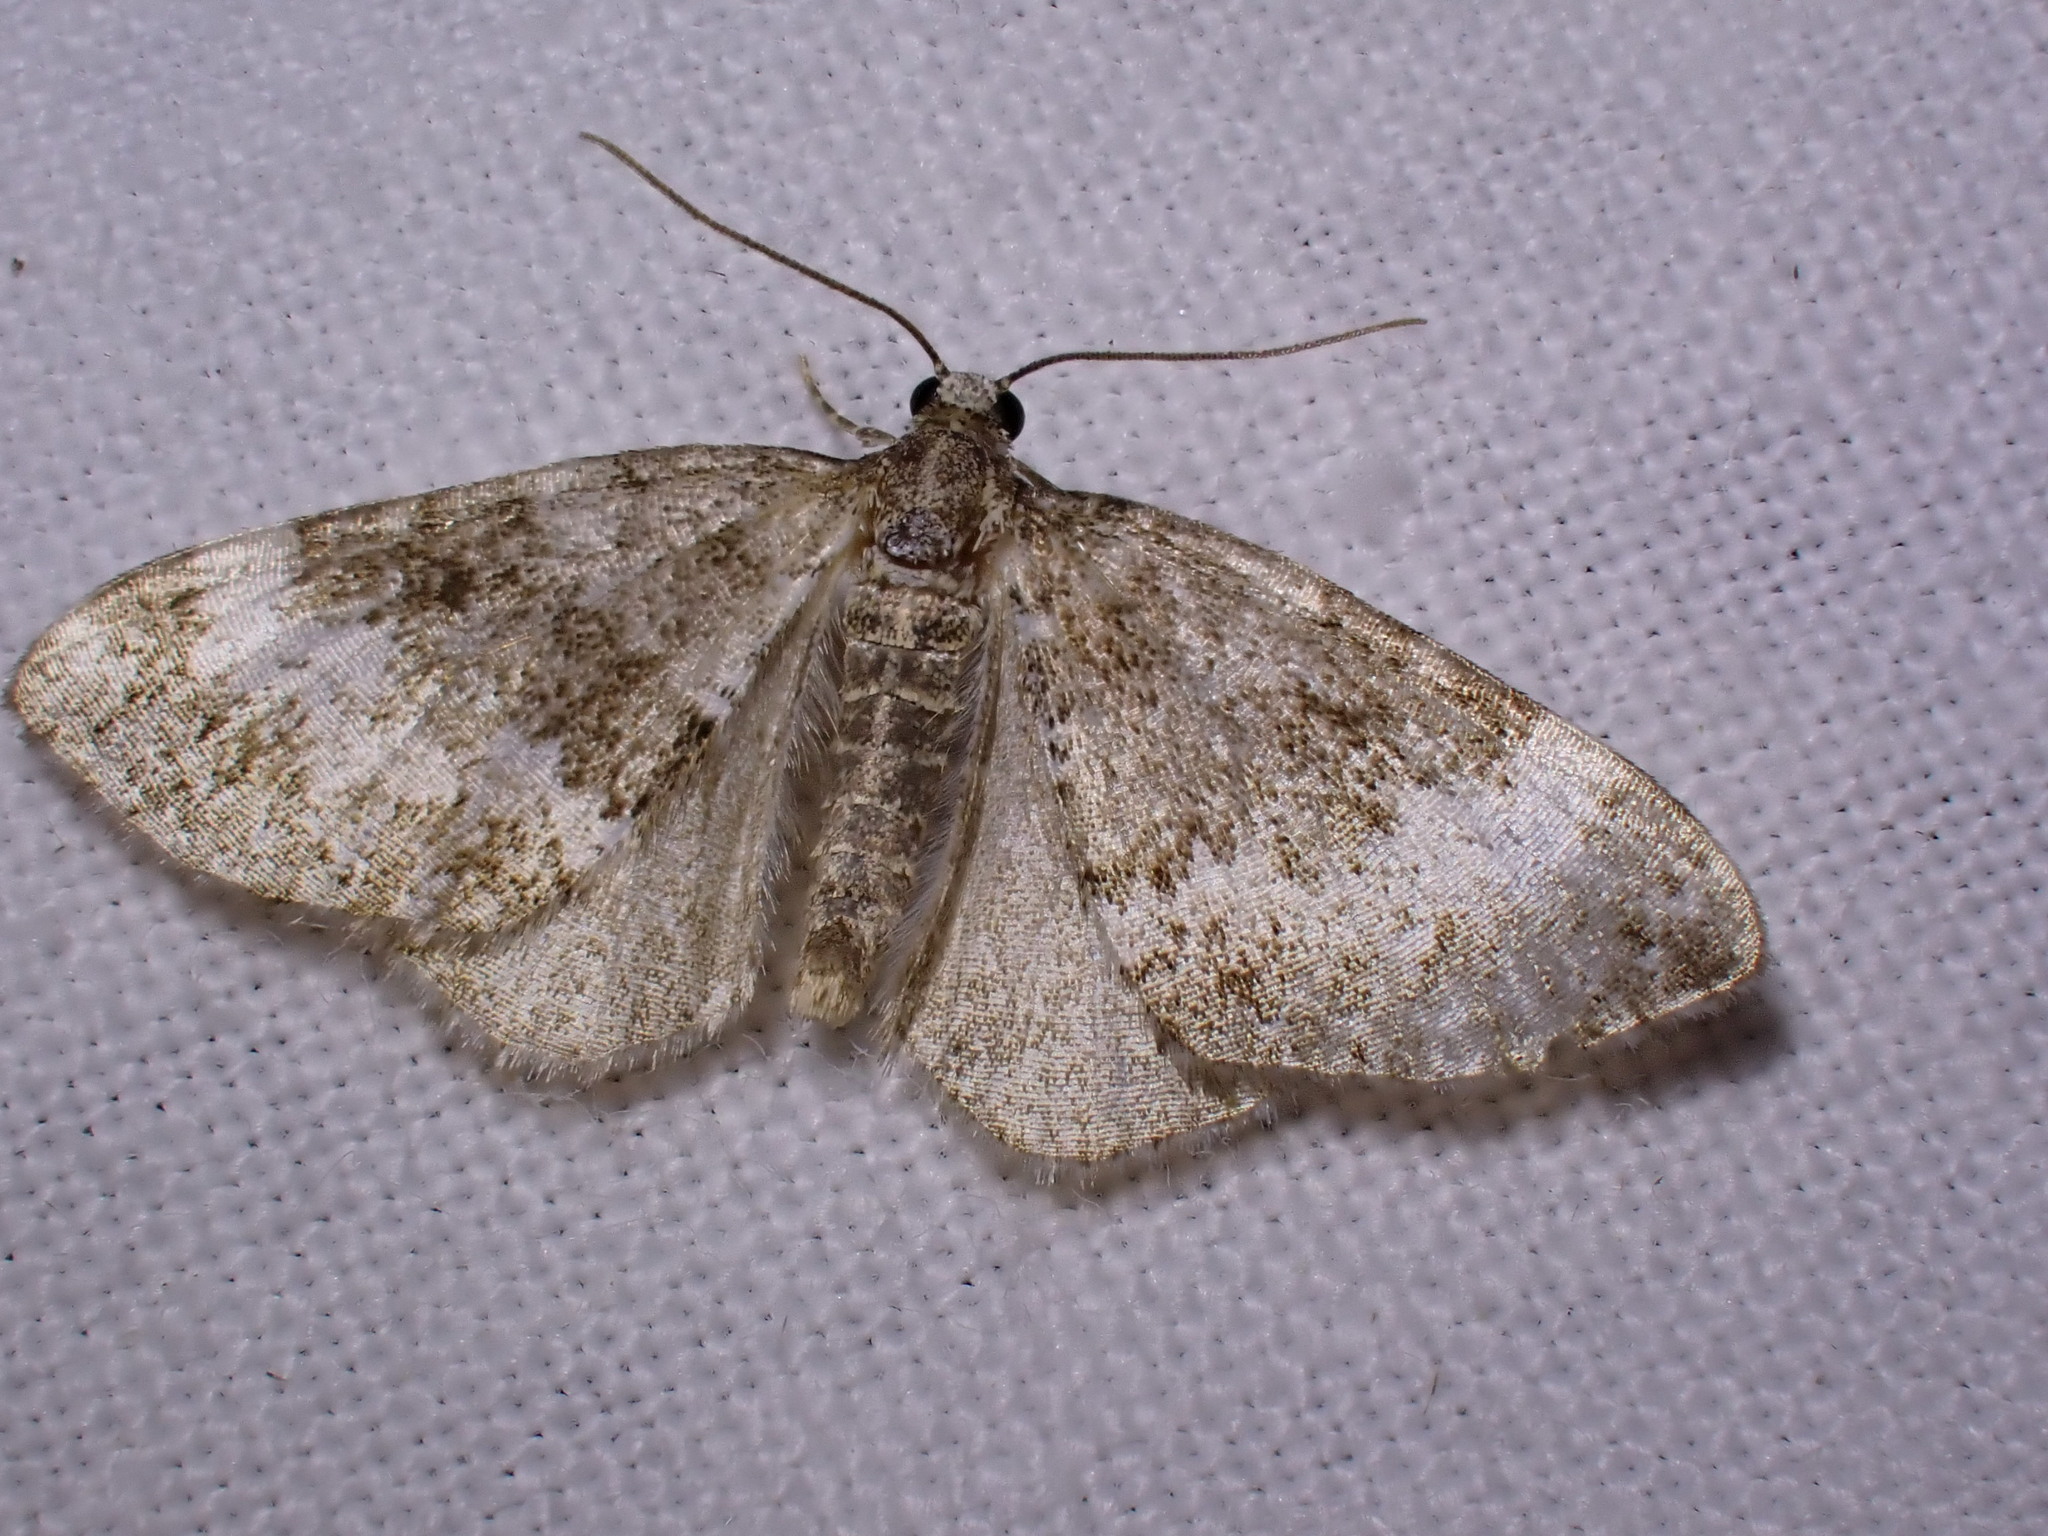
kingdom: Animalia
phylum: Arthropoda
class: Insecta
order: Lepidoptera
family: Geometridae
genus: Perizoma
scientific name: Perizoma alchemillata
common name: Small rivulet
